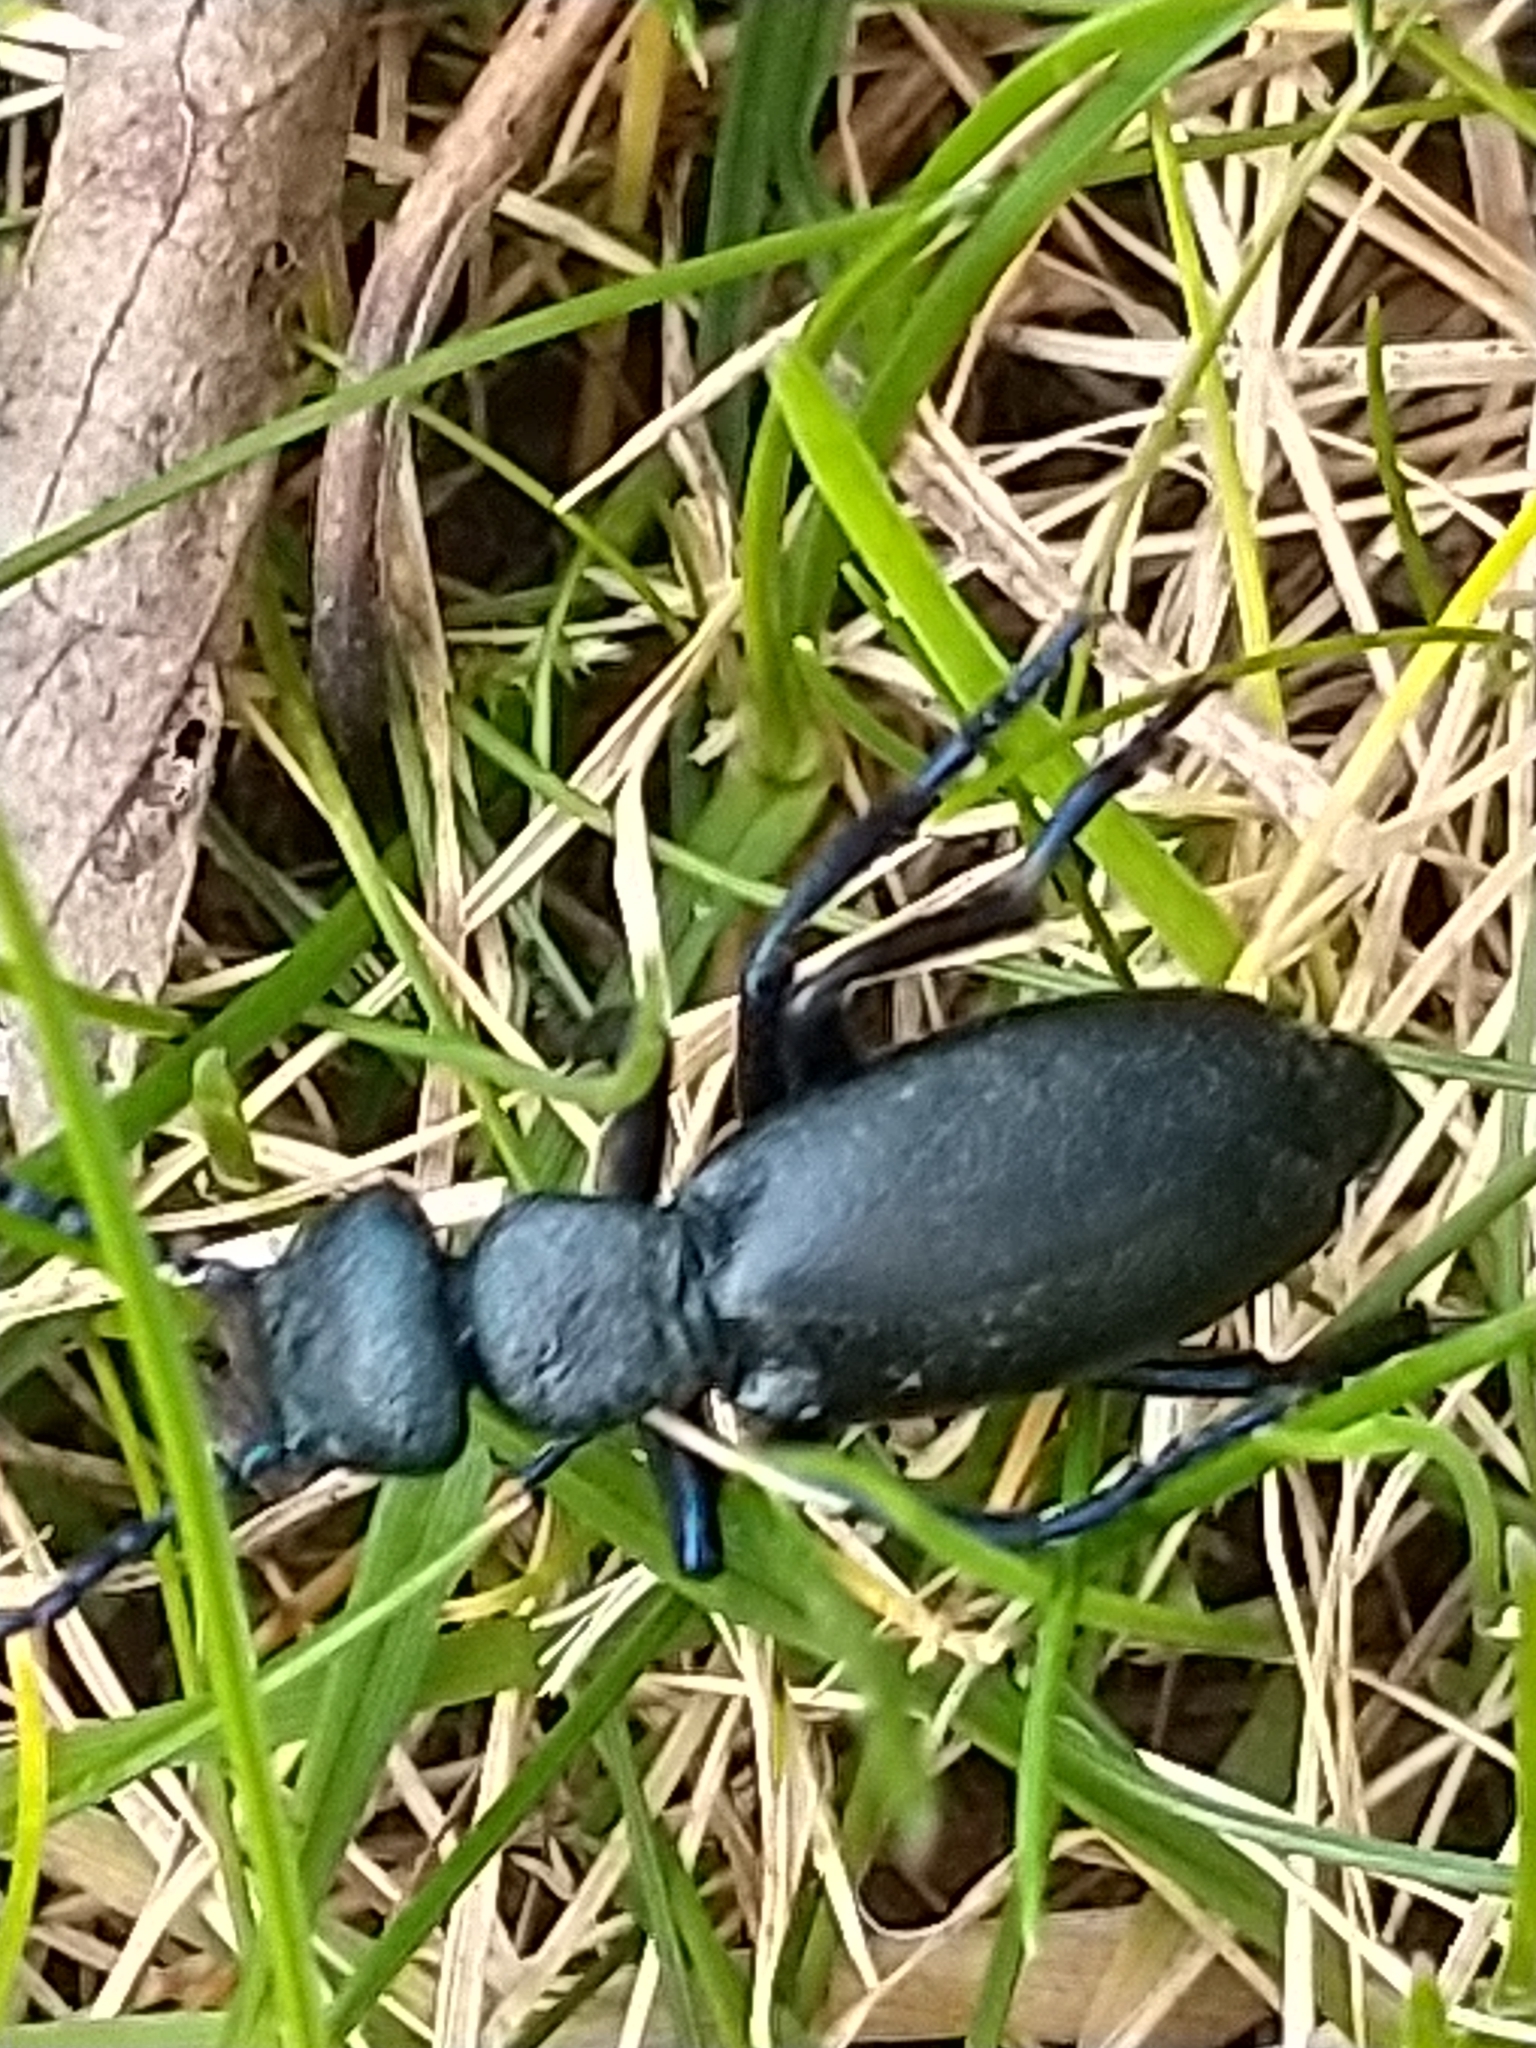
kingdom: Animalia
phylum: Arthropoda
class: Insecta
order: Coleoptera
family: Meloidae
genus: Meloe
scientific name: Meloe proscarabaeus
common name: Black oil-beetle
